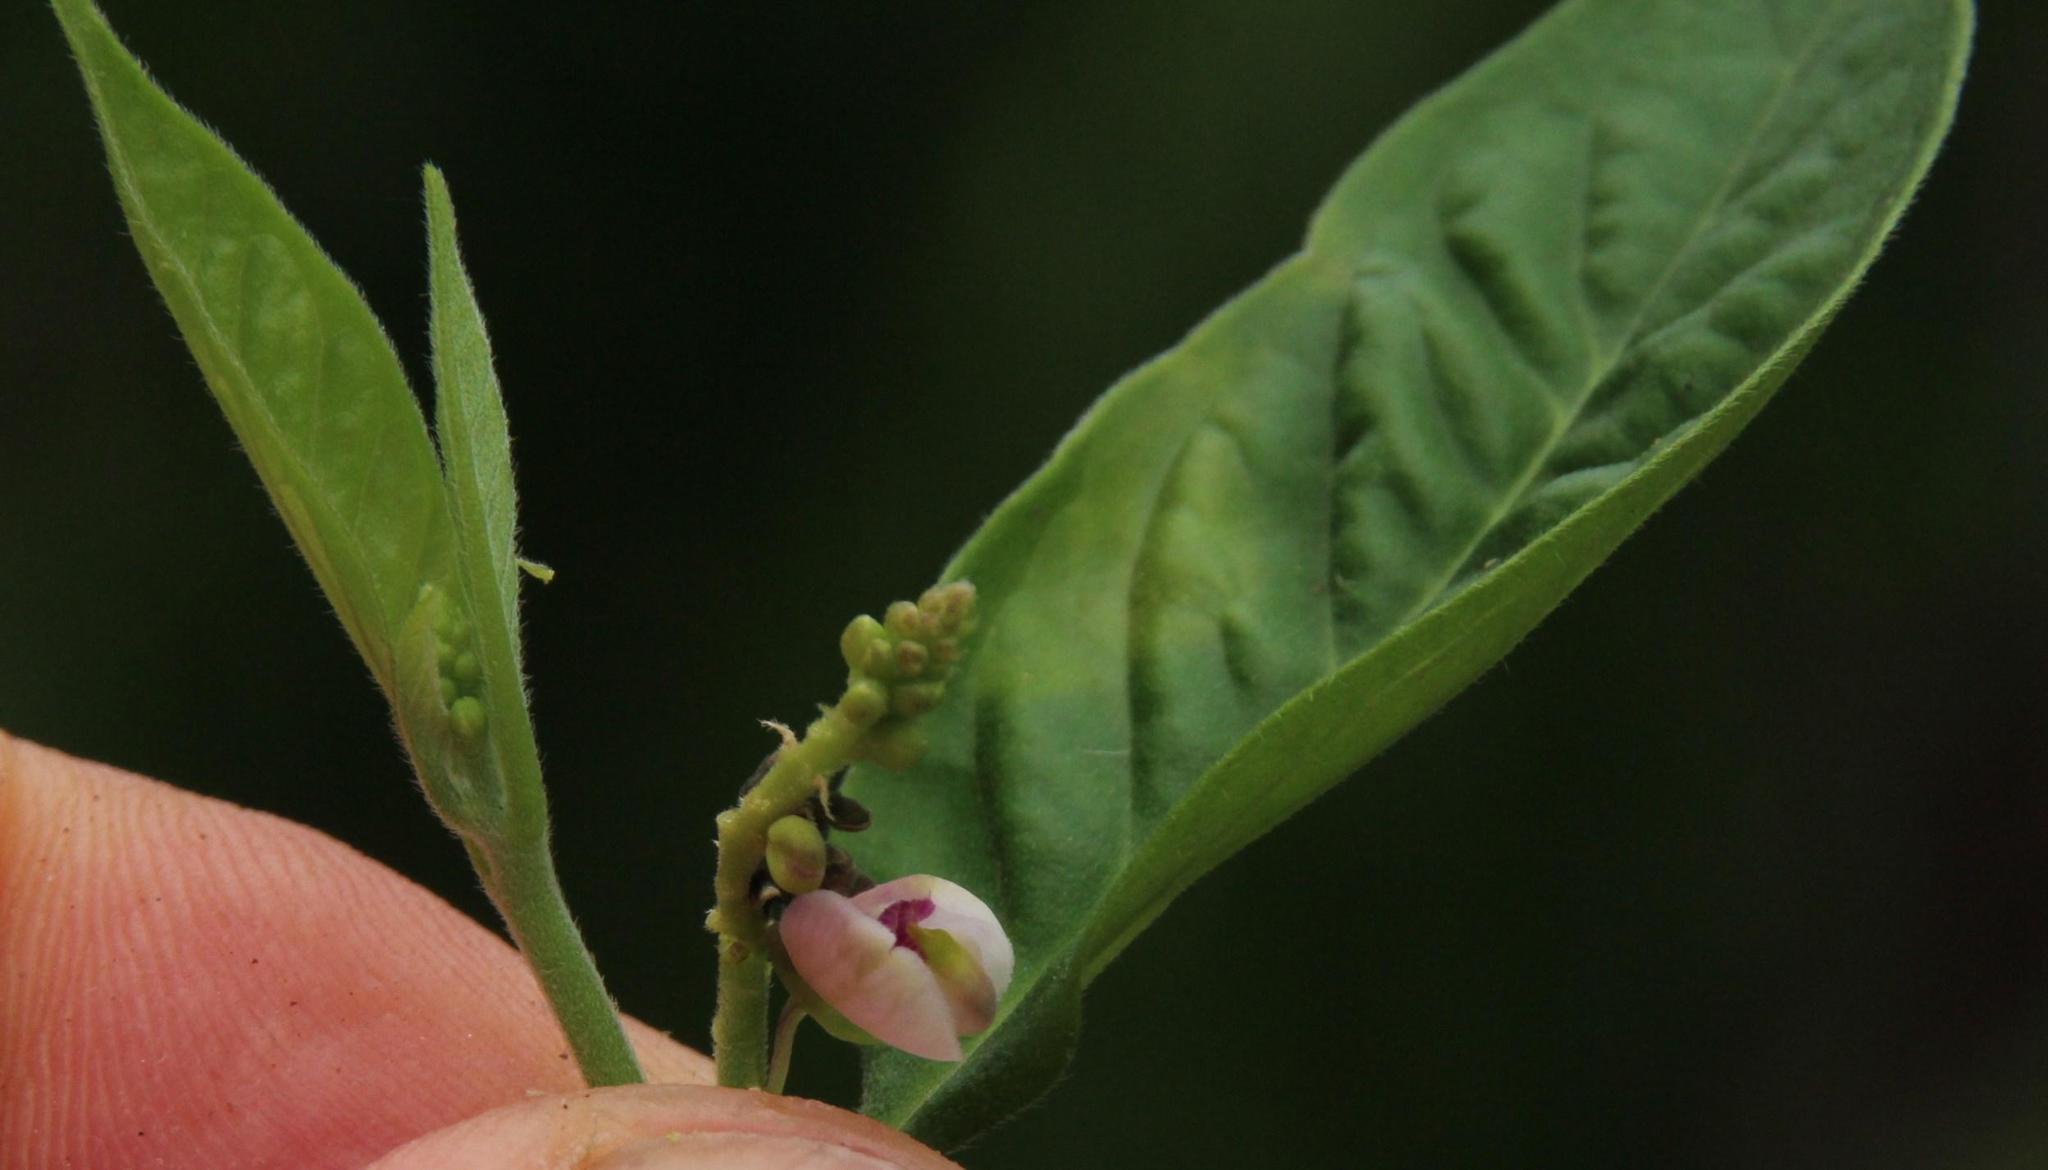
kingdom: Plantae
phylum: Tracheophyta
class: Magnoliopsida
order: Fabales
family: Polygalaceae
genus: Asemeia
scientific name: Asemeia acuminata
